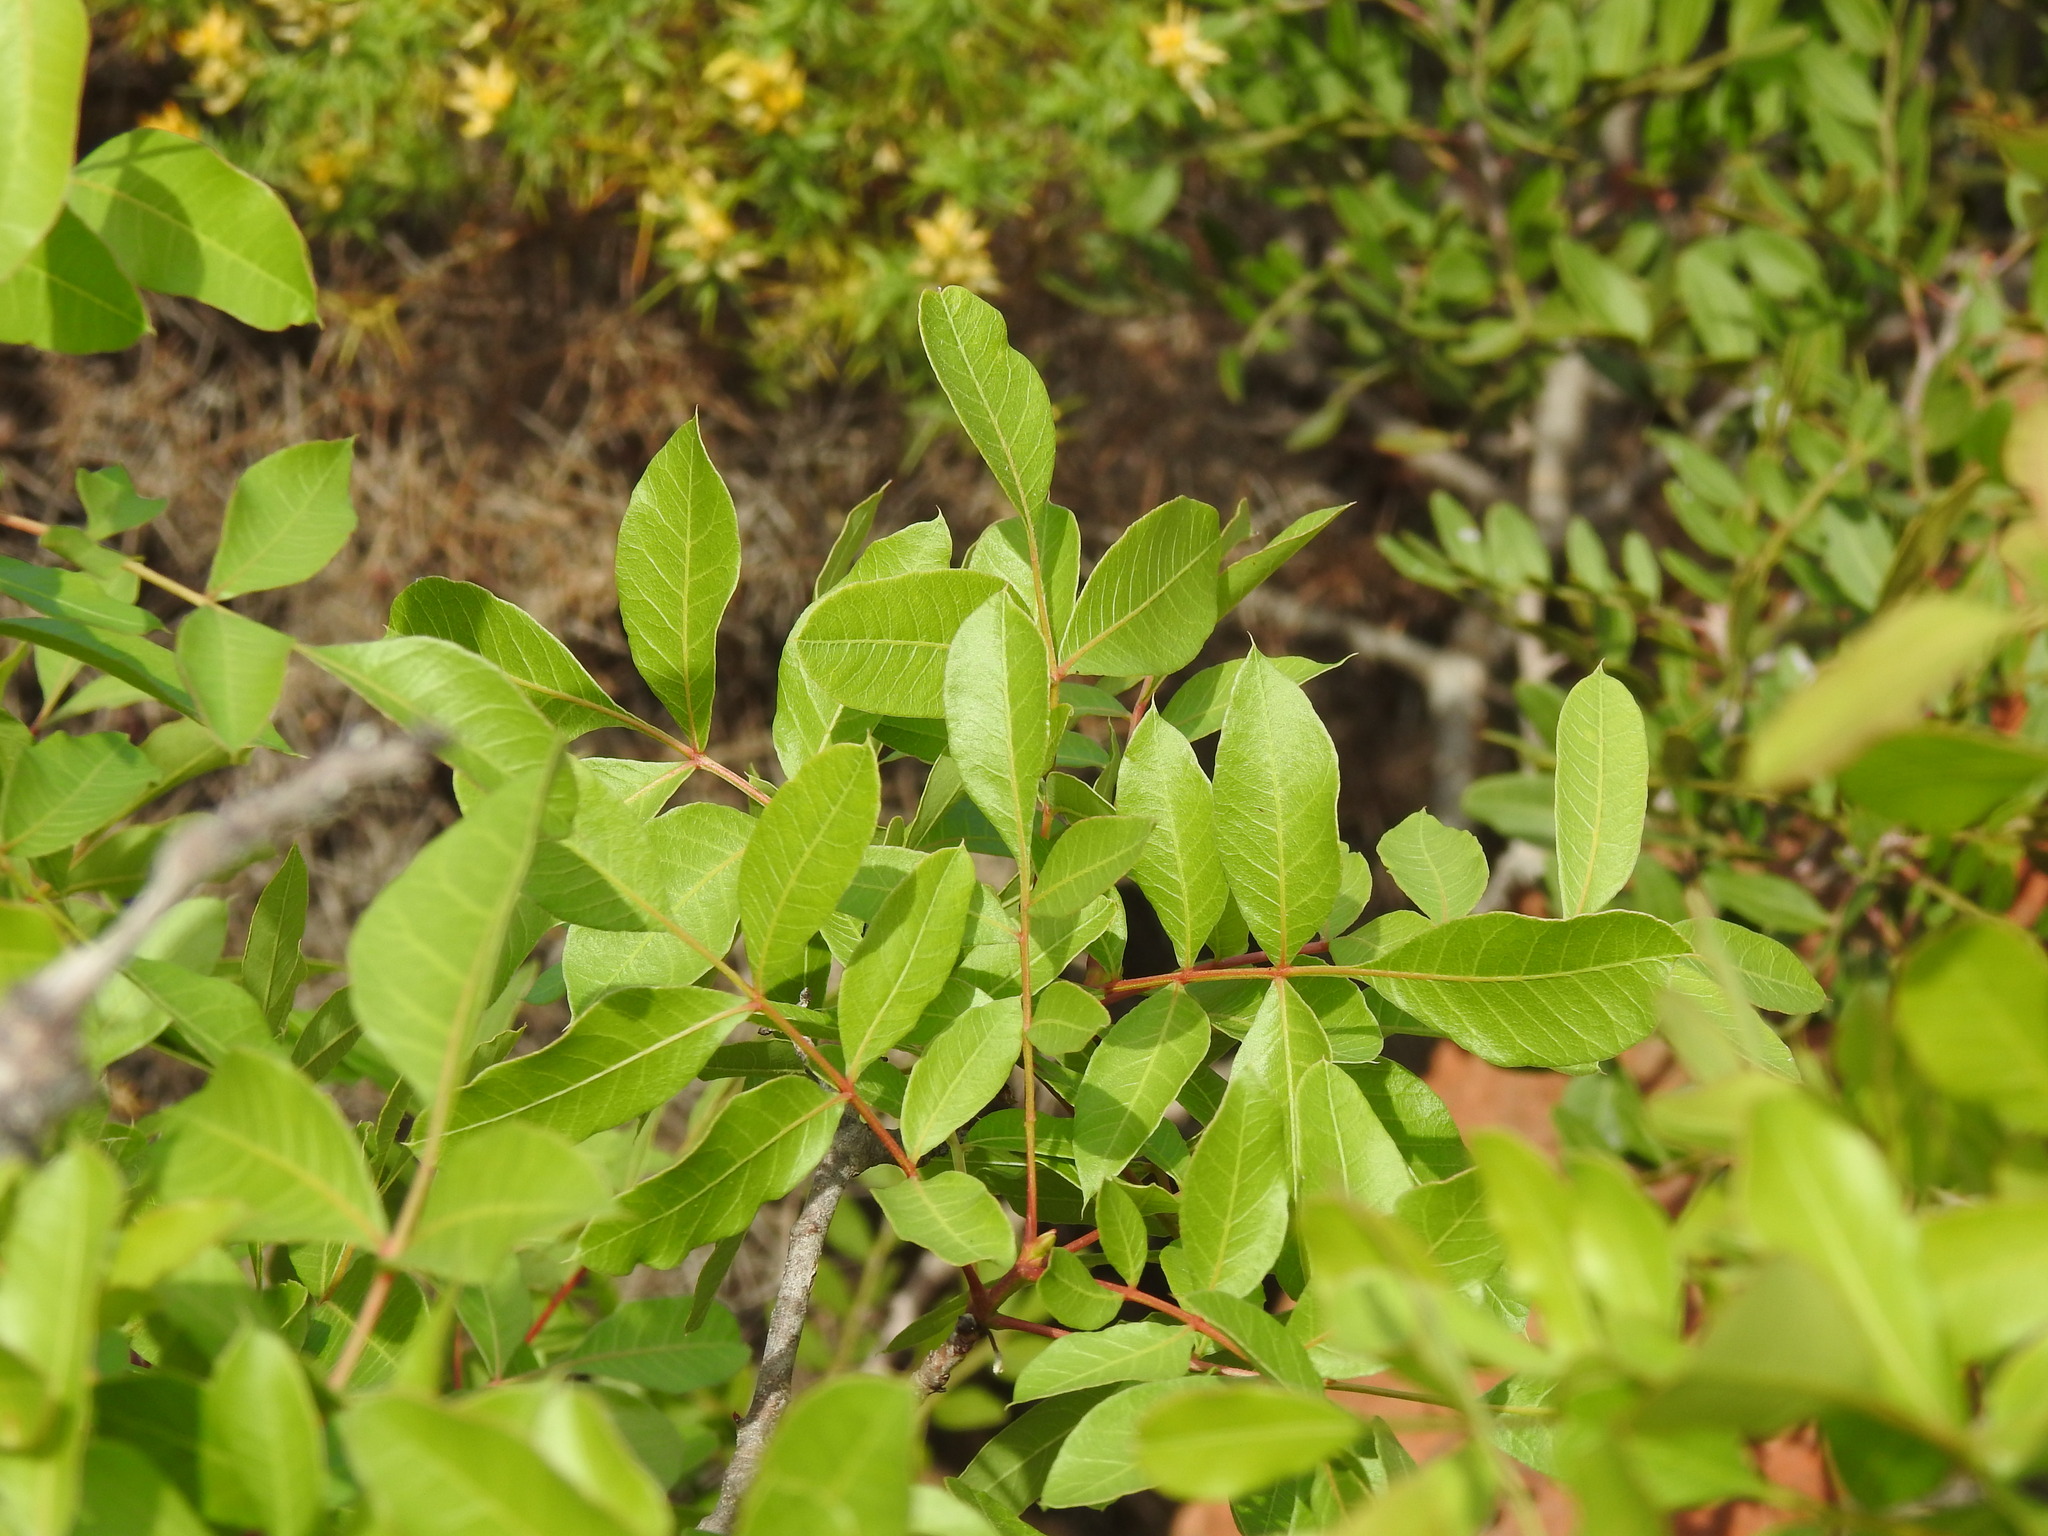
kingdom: Plantae
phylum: Tracheophyta
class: Magnoliopsida
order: Sapindales
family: Anacardiaceae
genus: Pistacia
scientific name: Pistacia terebinthus
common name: Terebinth
